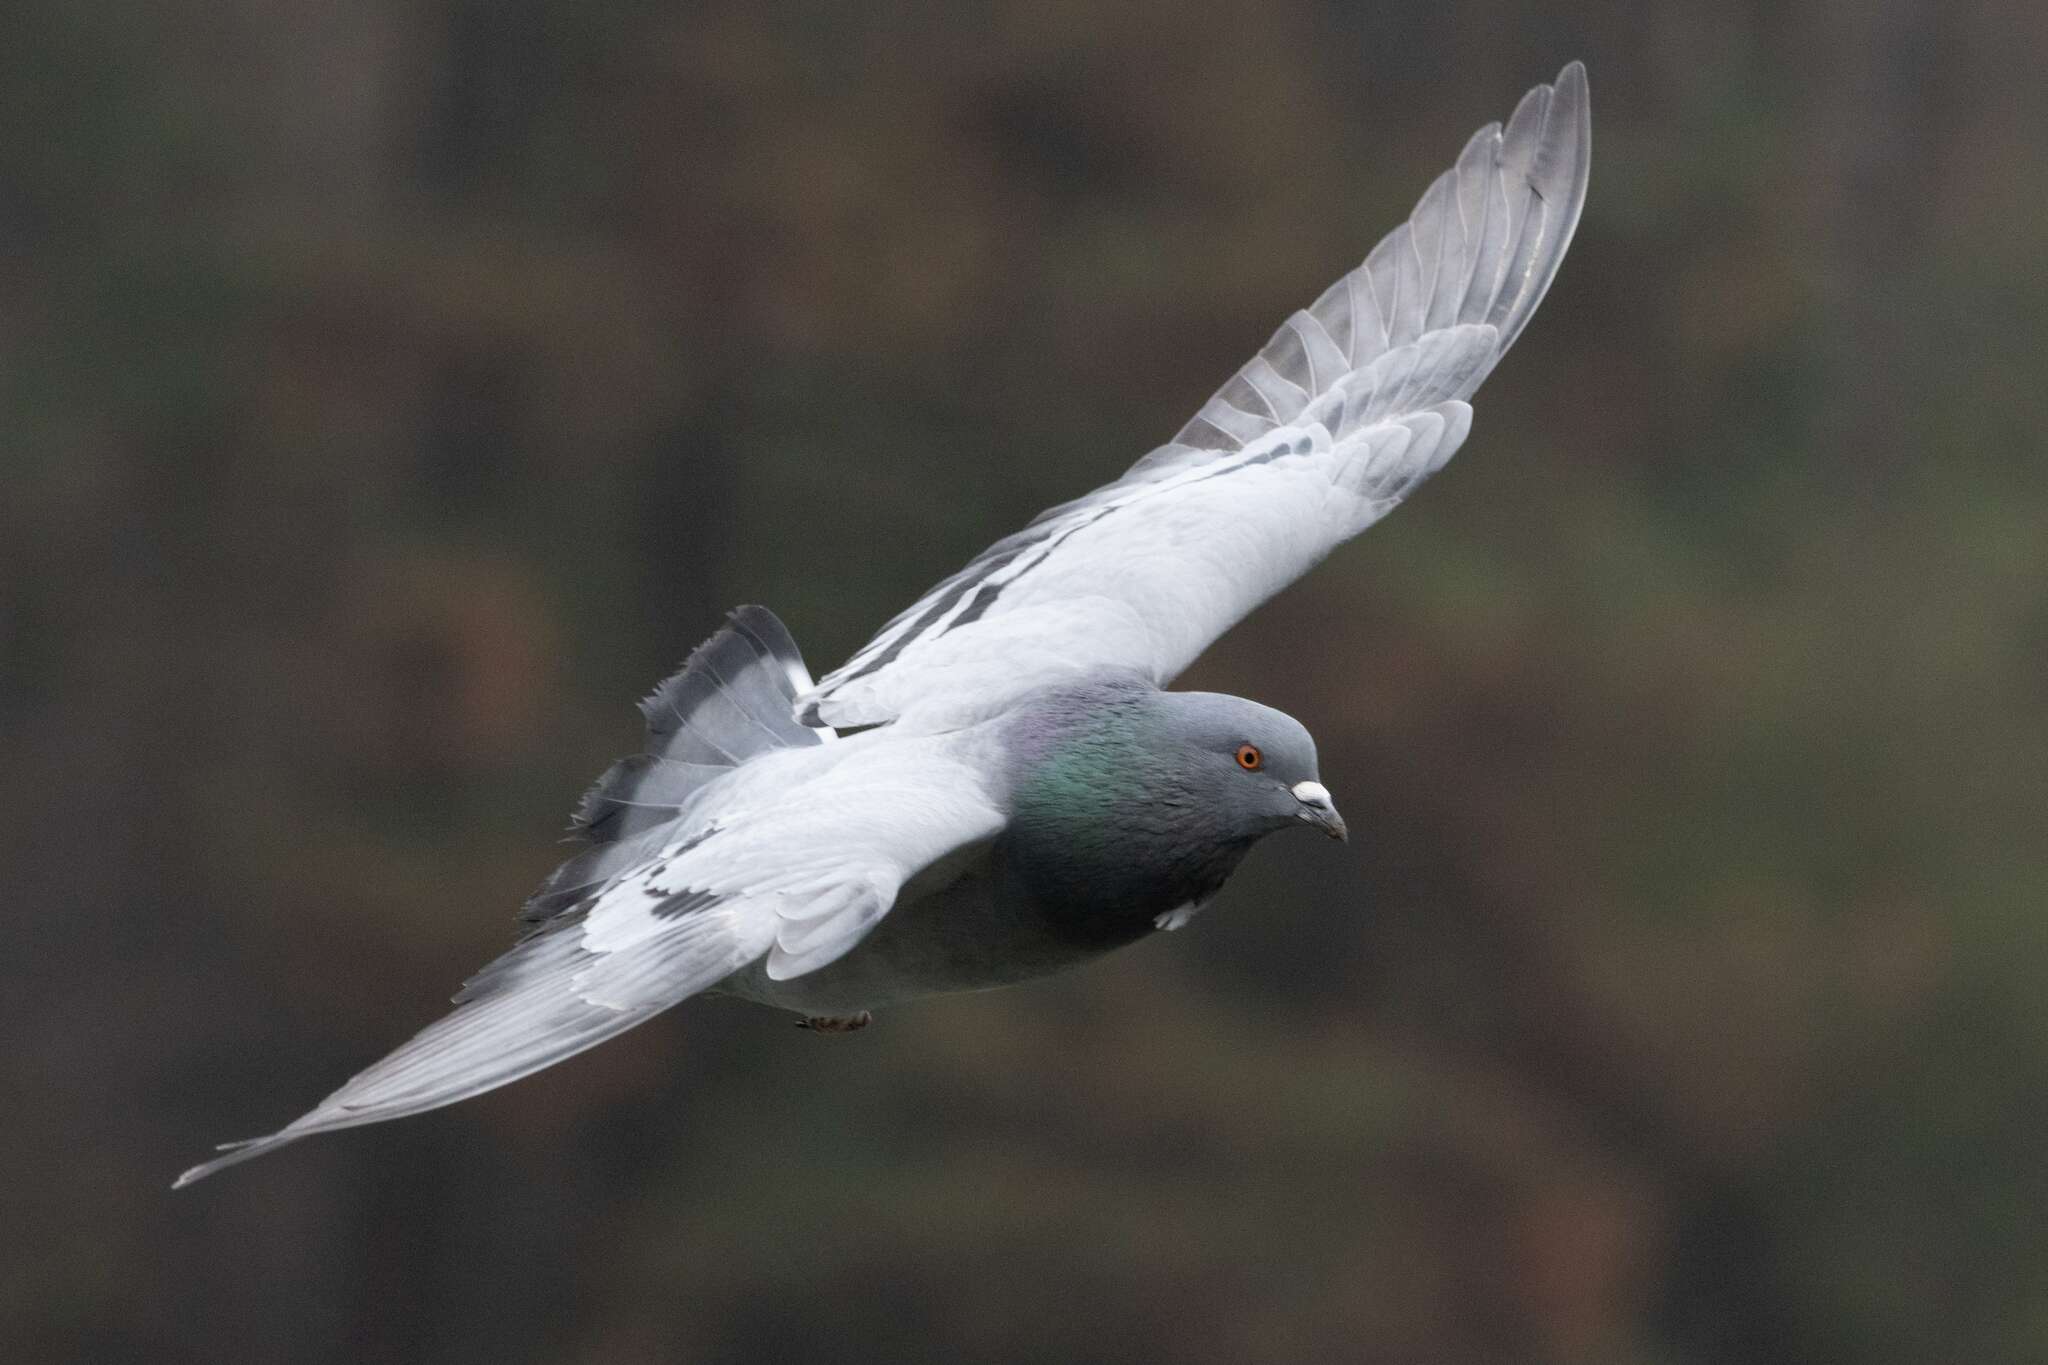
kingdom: Animalia
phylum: Chordata
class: Aves
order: Columbiformes
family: Columbidae
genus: Columba
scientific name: Columba livia
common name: Rock pigeon
